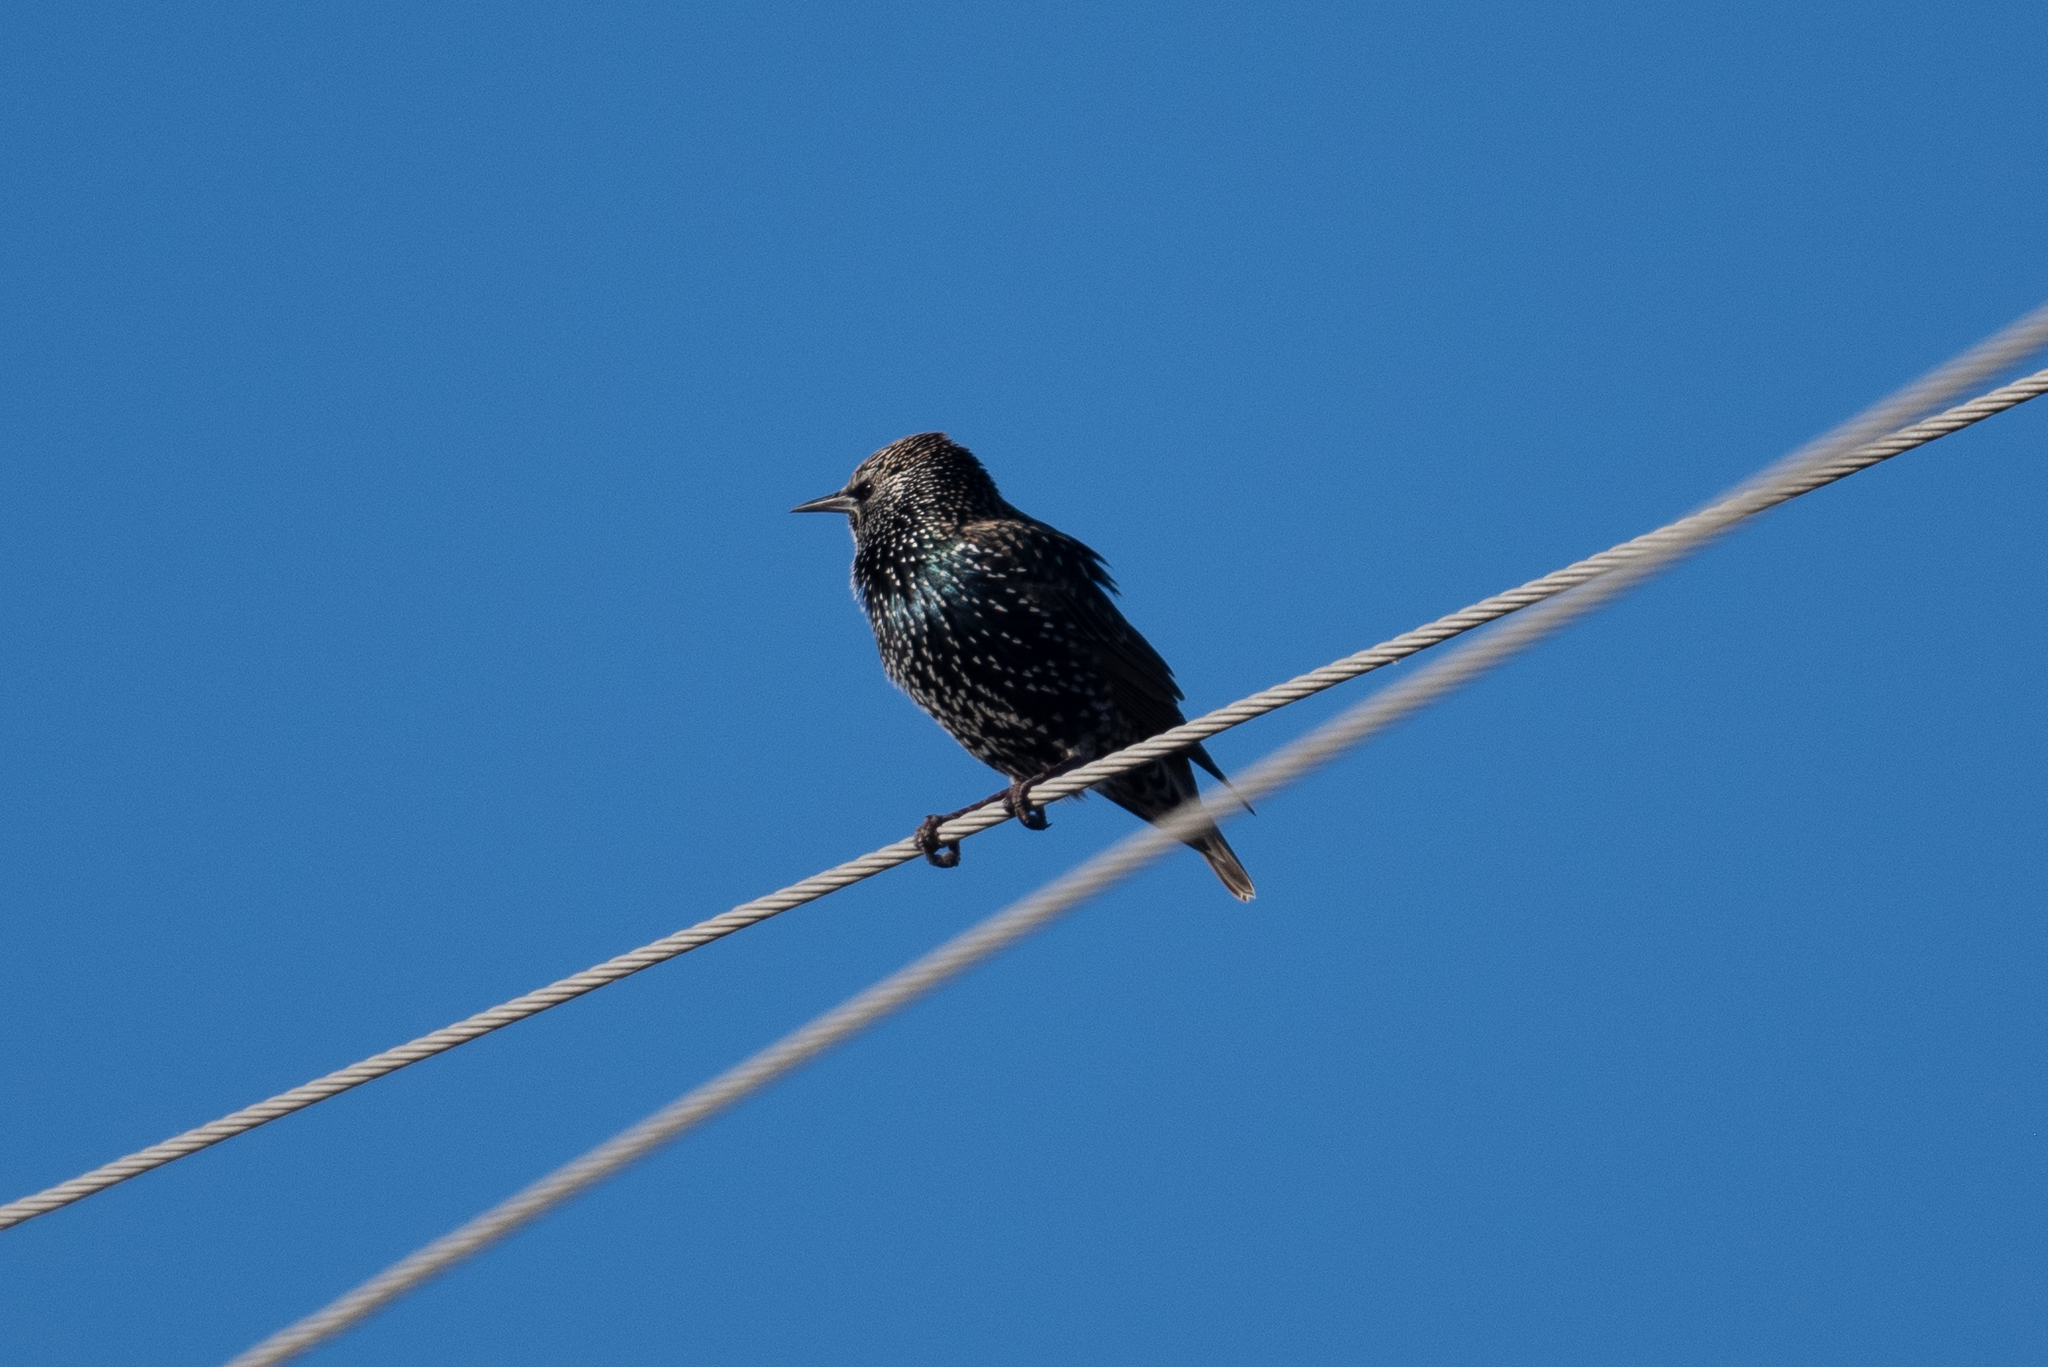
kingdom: Animalia
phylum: Chordata
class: Aves
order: Passeriformes
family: Sturnidae
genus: Sturnus
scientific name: Sturnus vulgaris
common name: Common starling
